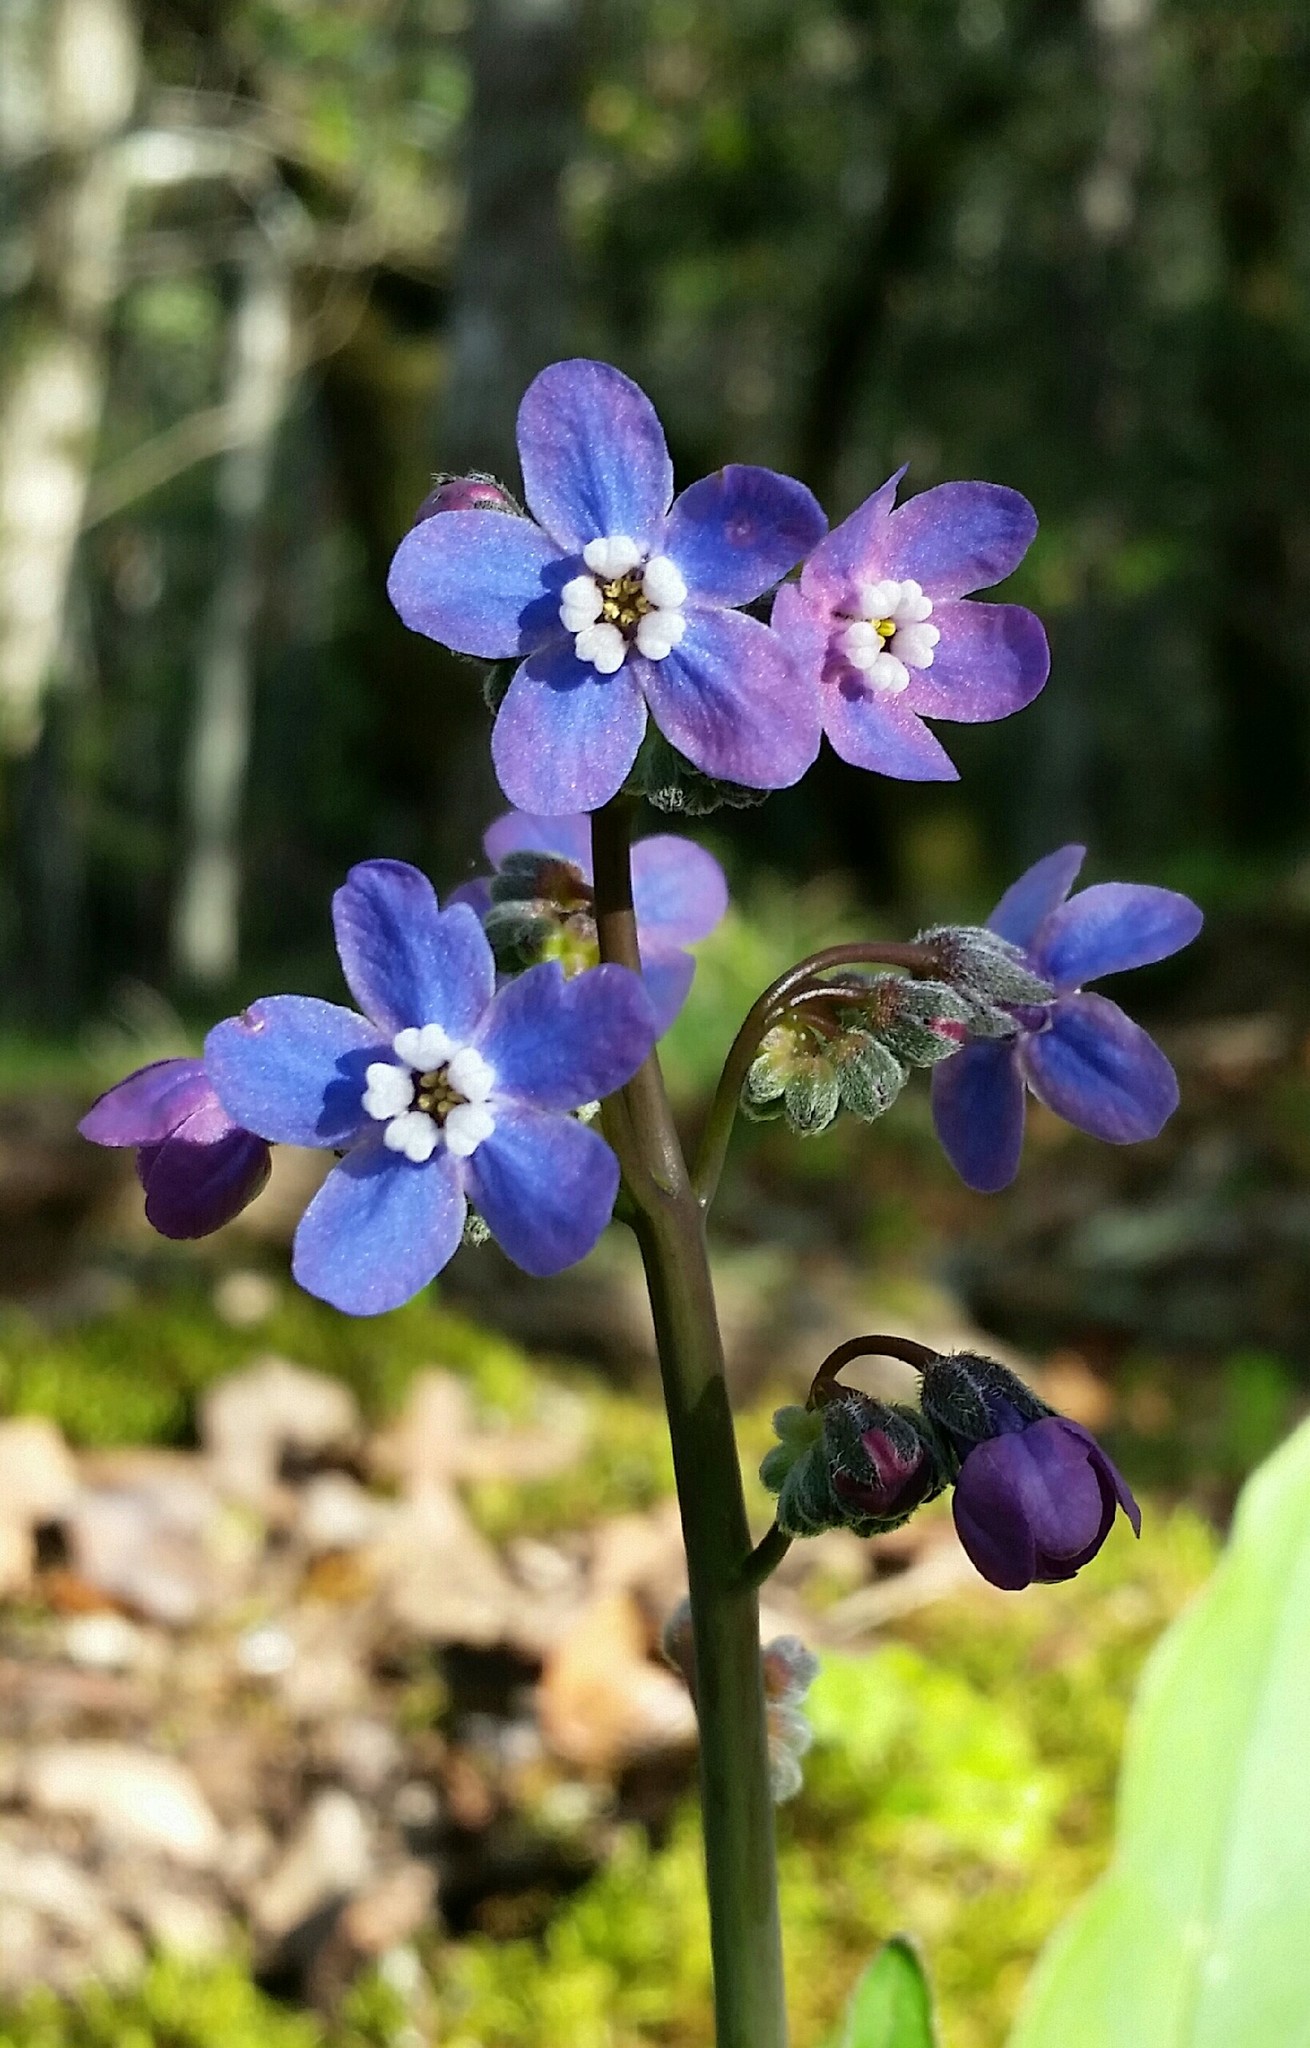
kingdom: Plantae
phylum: Tracheophyta
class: Magnoliopsida
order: Boraginales
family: Boraginaceae
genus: Adelinia
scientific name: Adelinia grande
